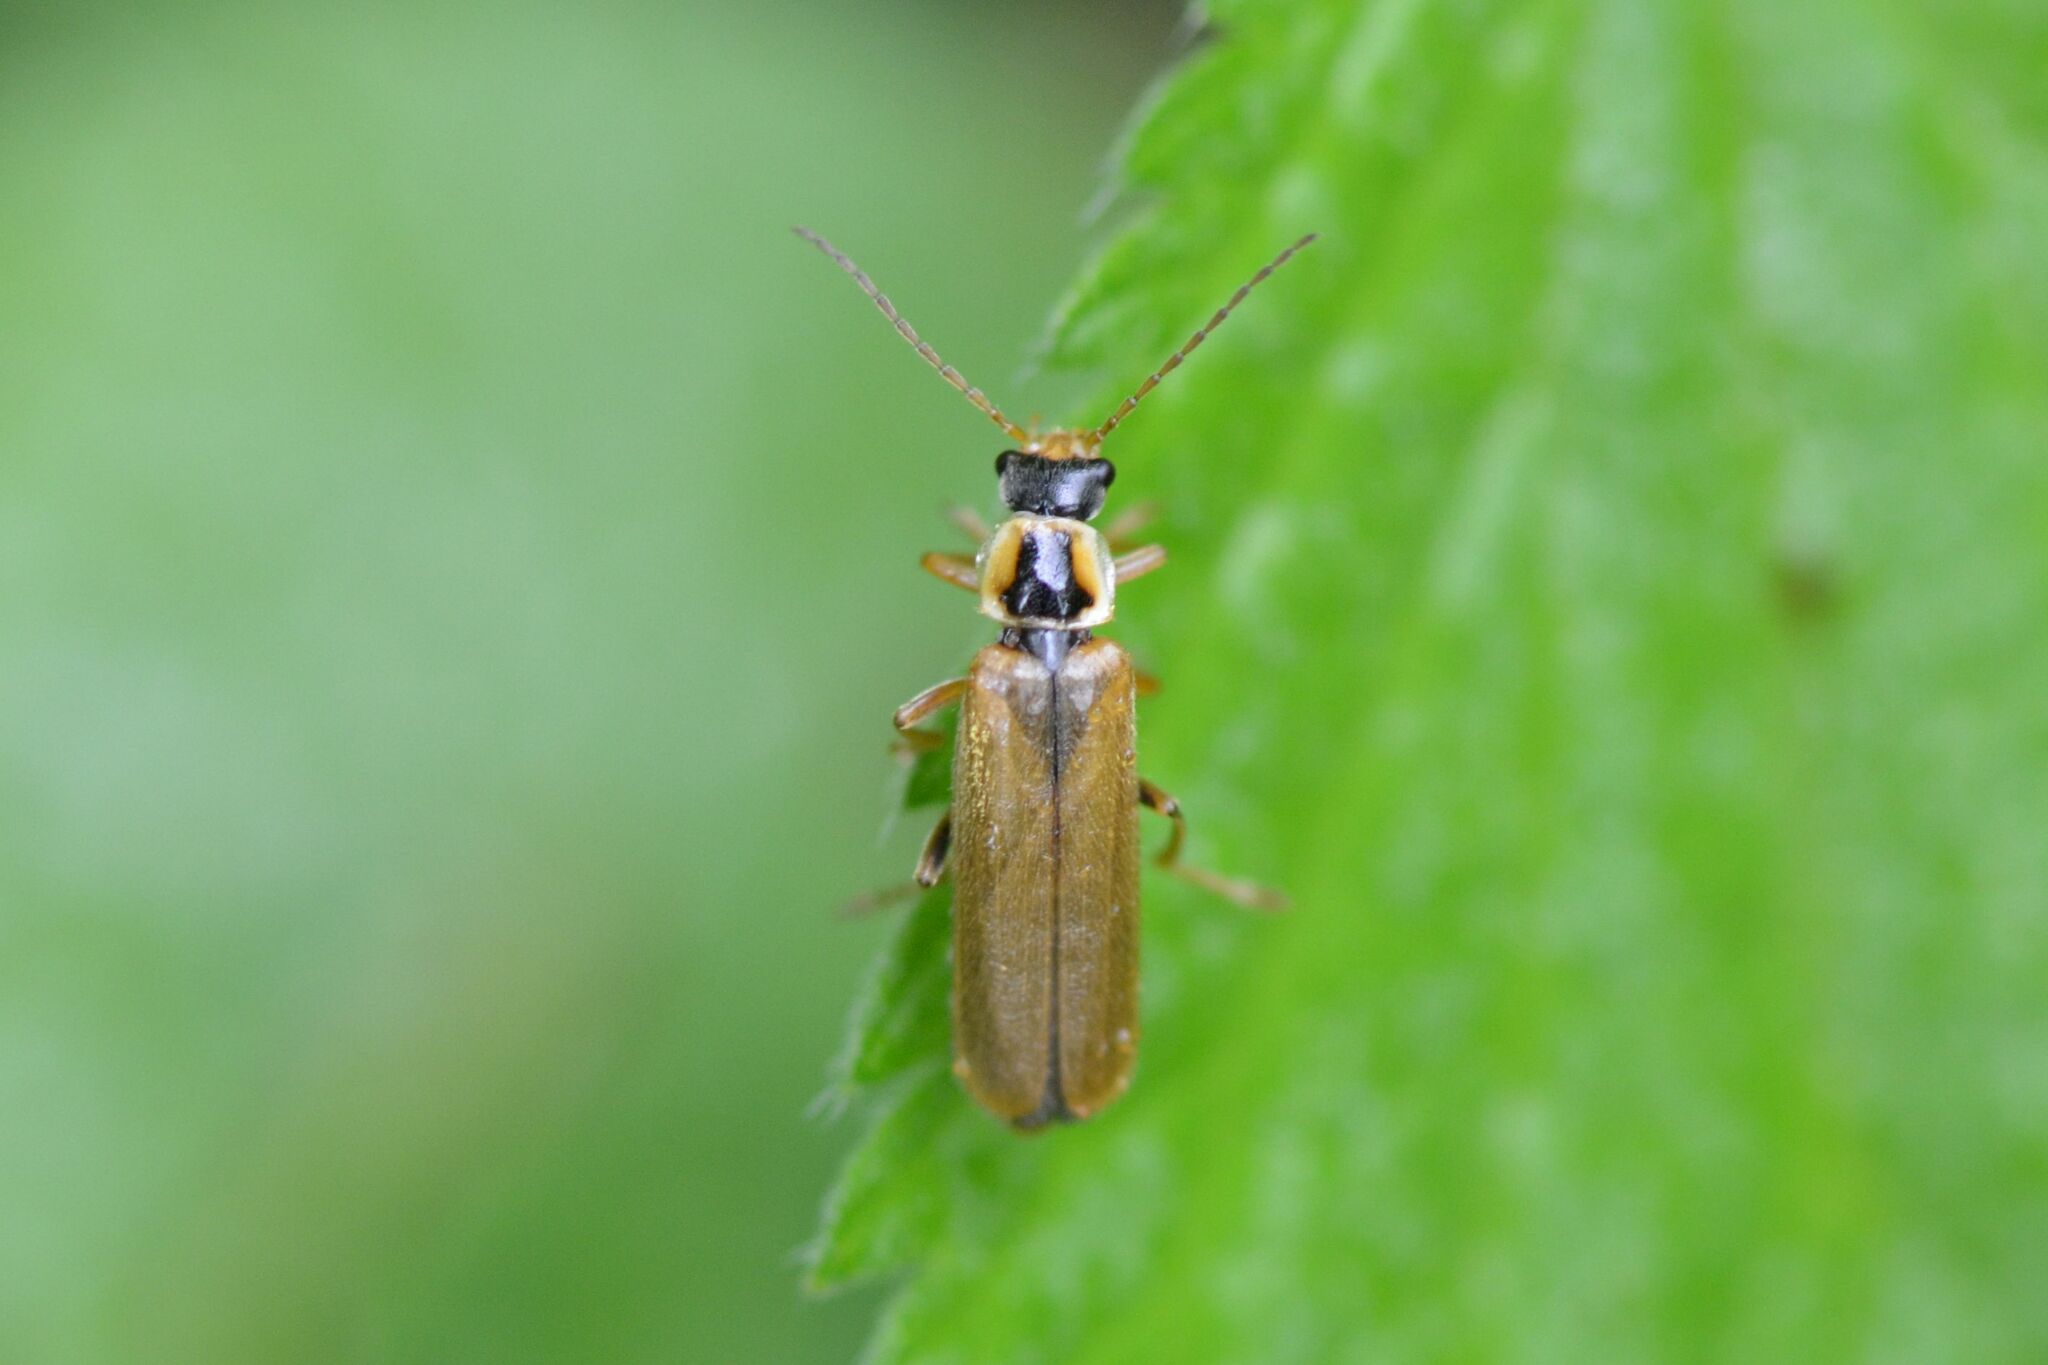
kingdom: Animalia
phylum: Arthropoda
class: Insecta
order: Coleoptera
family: Cantharidae
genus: Cantharis
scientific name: Cantharis decipiens
